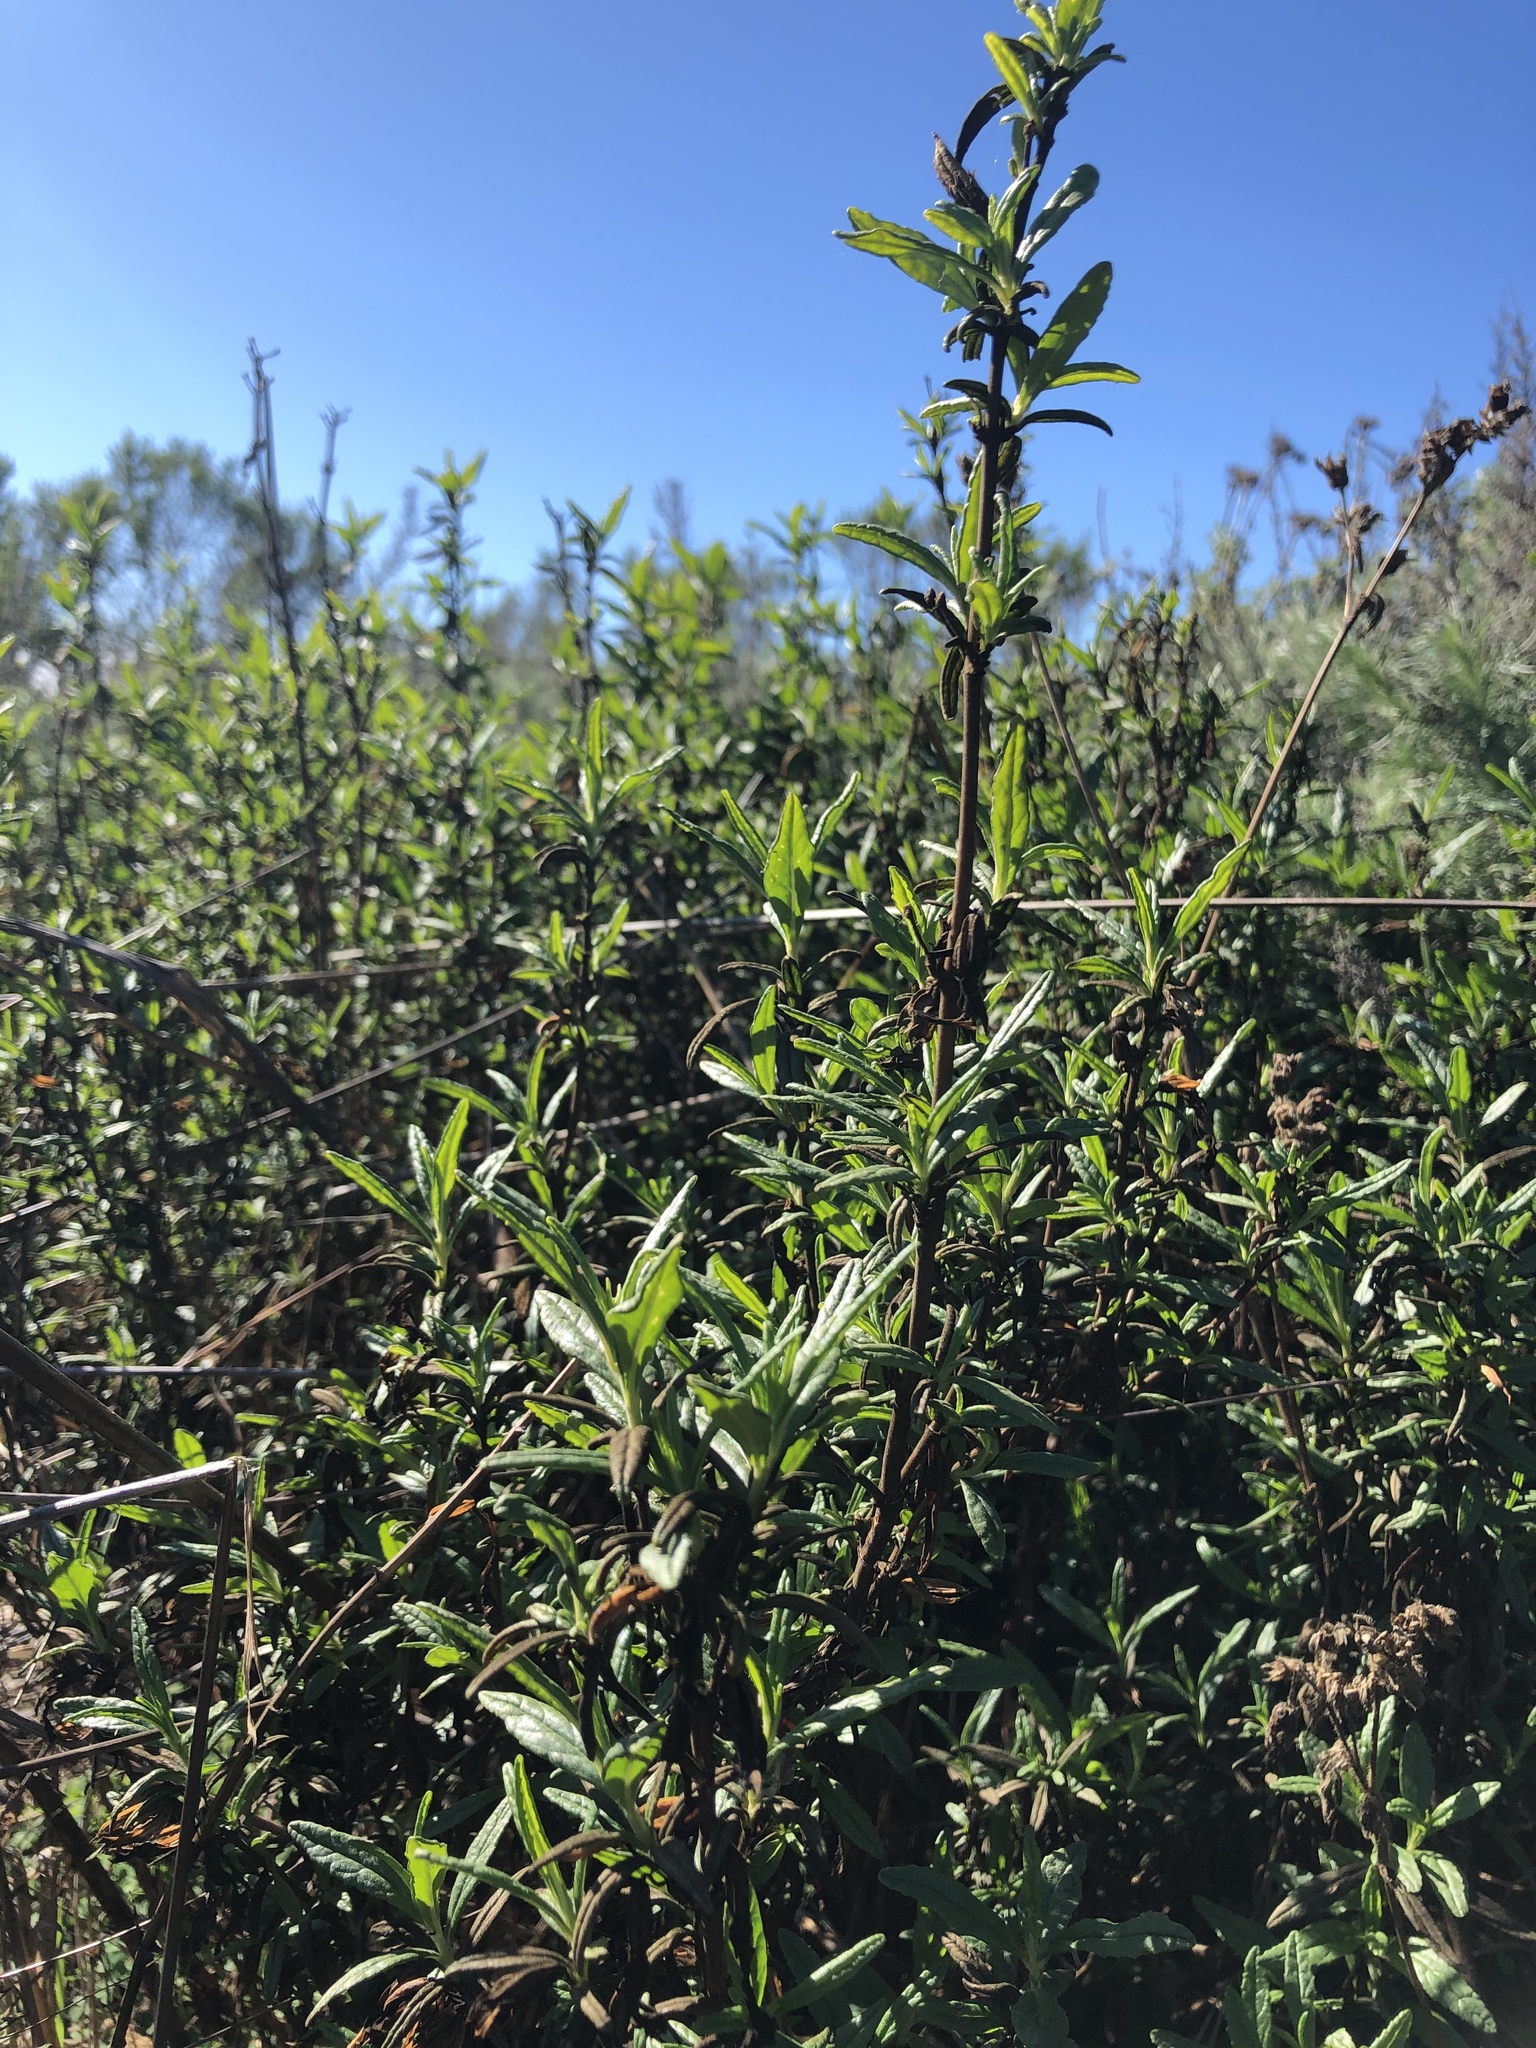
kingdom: Plantae
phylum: Tracheophyta
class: Magnoliopsida
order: Lamiales
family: Phrymaceae
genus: Diplacus
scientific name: Diplacus aurantiacus
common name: Bush monkey-flower
